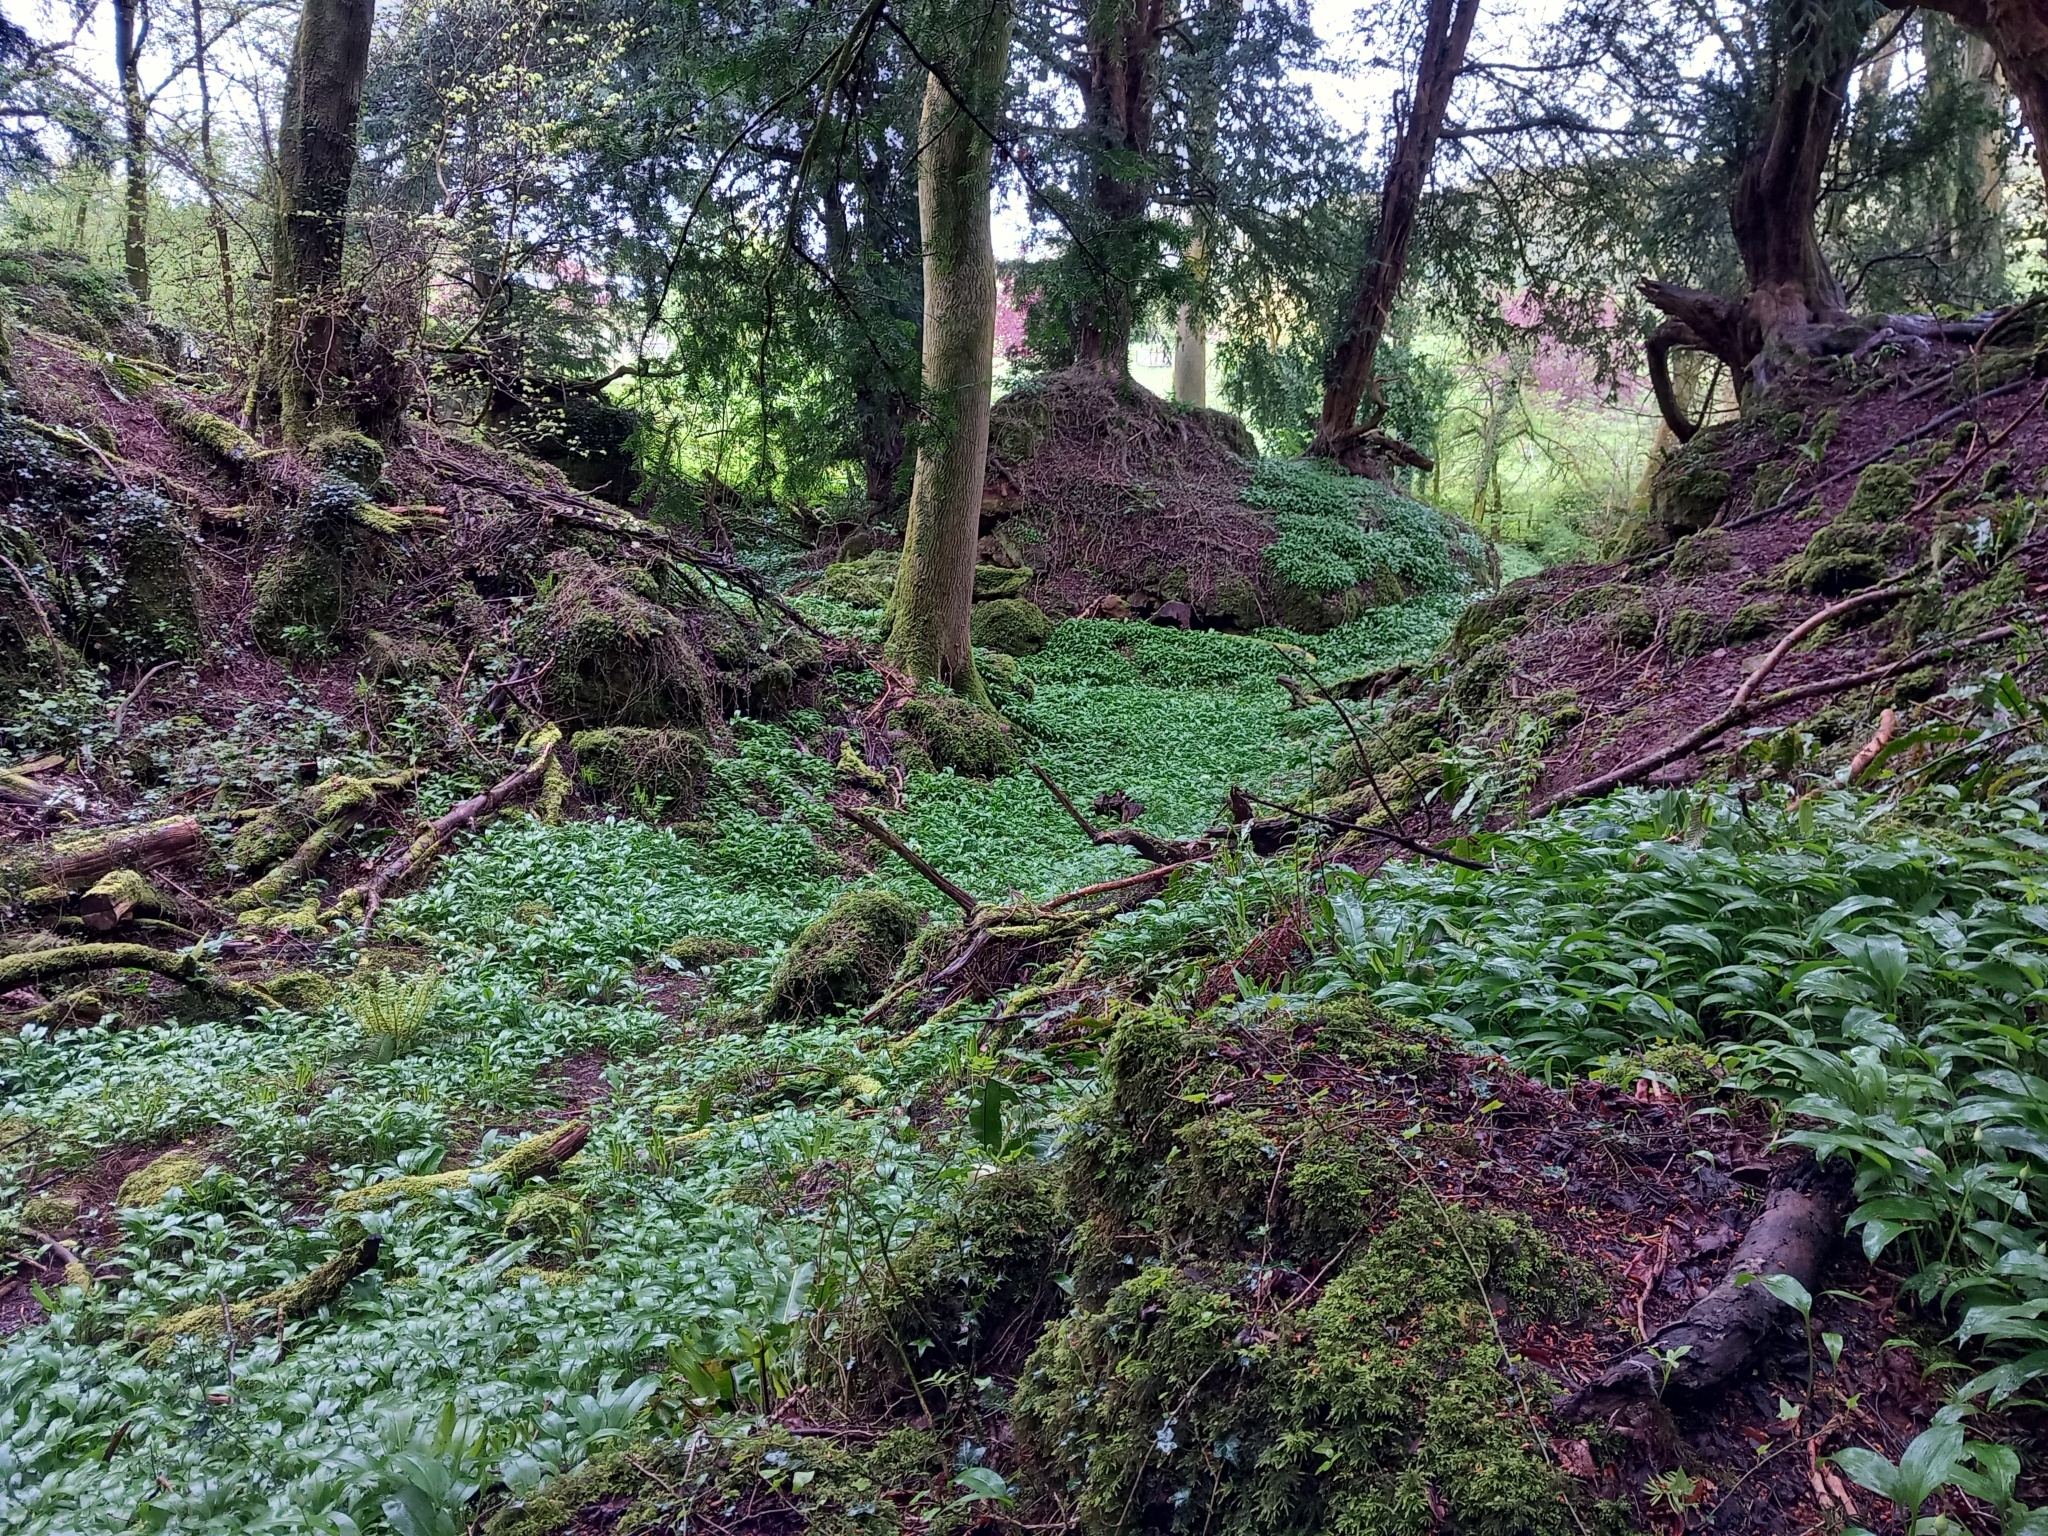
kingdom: Plantae
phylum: Tracheophyta
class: Liliopsida
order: Asparagales
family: Amaryllidaceae
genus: Allium
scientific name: Allium ursinum
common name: Ramsons
